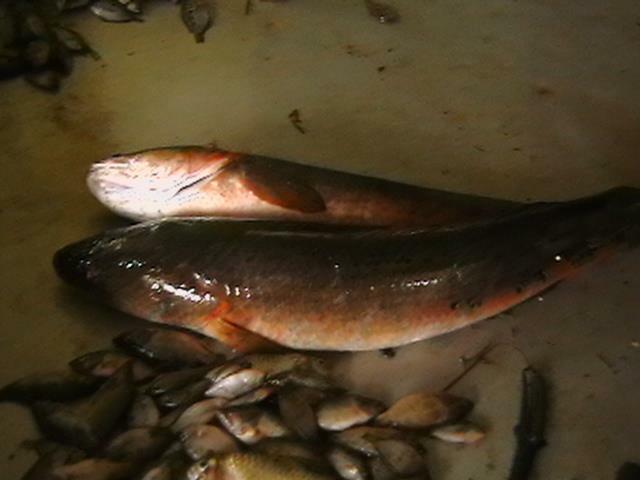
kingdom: Animalia
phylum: Chordata
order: Perciformes
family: Channidae
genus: Channa
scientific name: Channa marulius
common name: Giant snakehead
